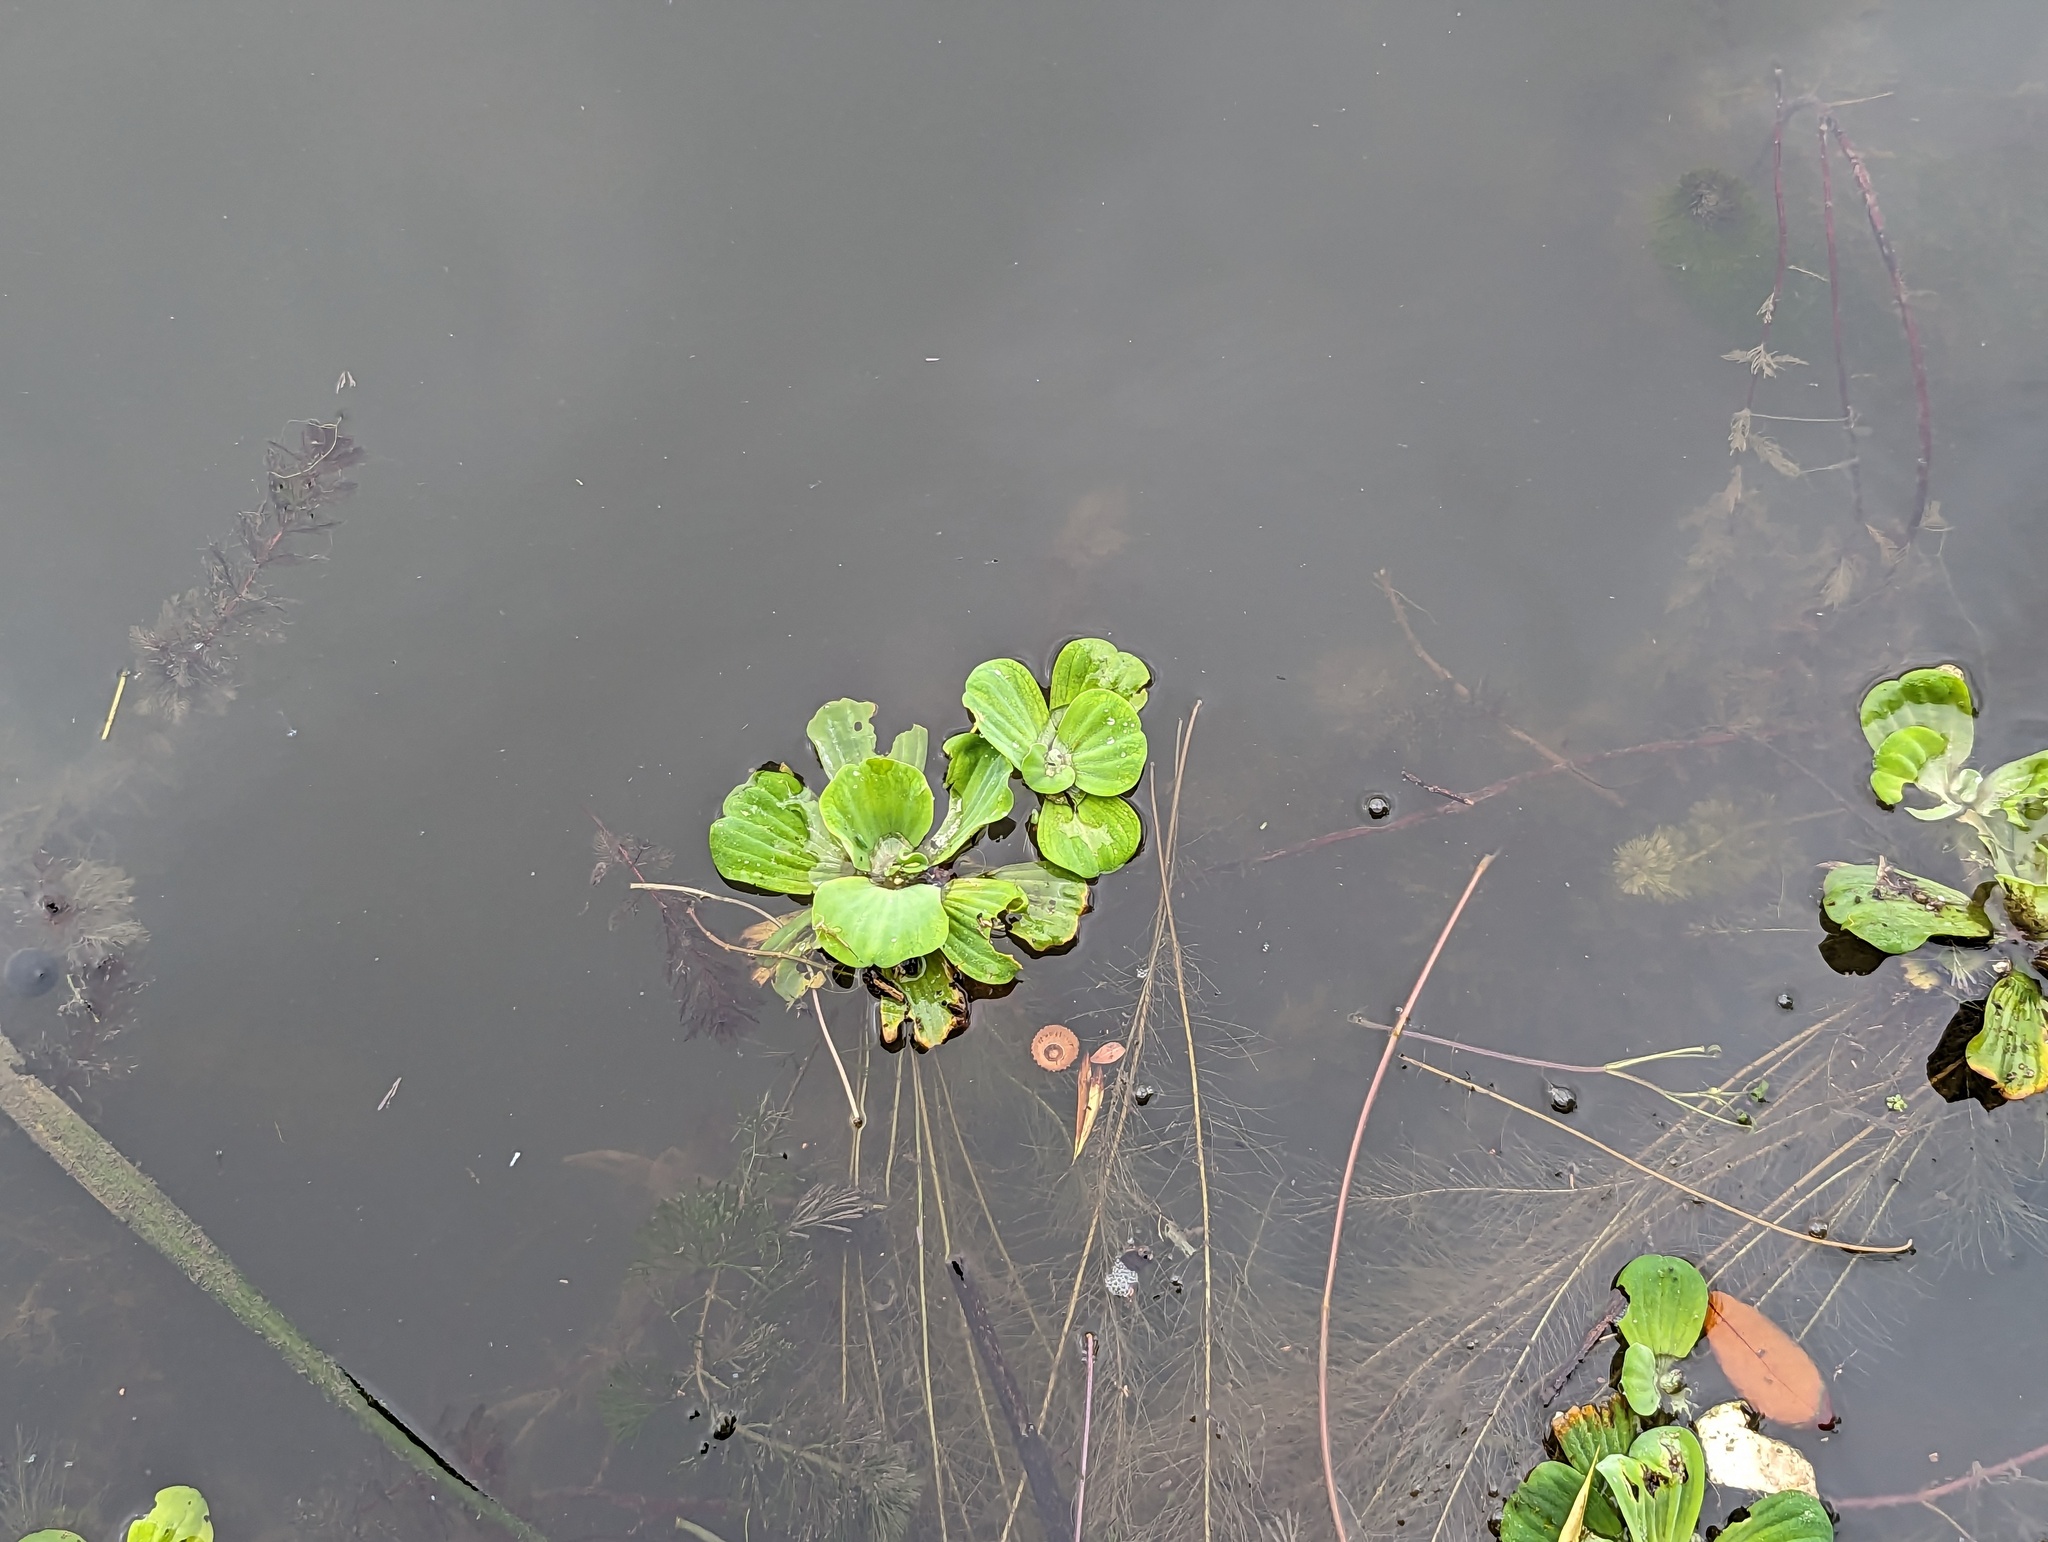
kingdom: Plantae
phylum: Tracheophyta
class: Liliopsida
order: Alismatales
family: Araceae
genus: Pistia
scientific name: Pistia stratiotes
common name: Water lettuce
